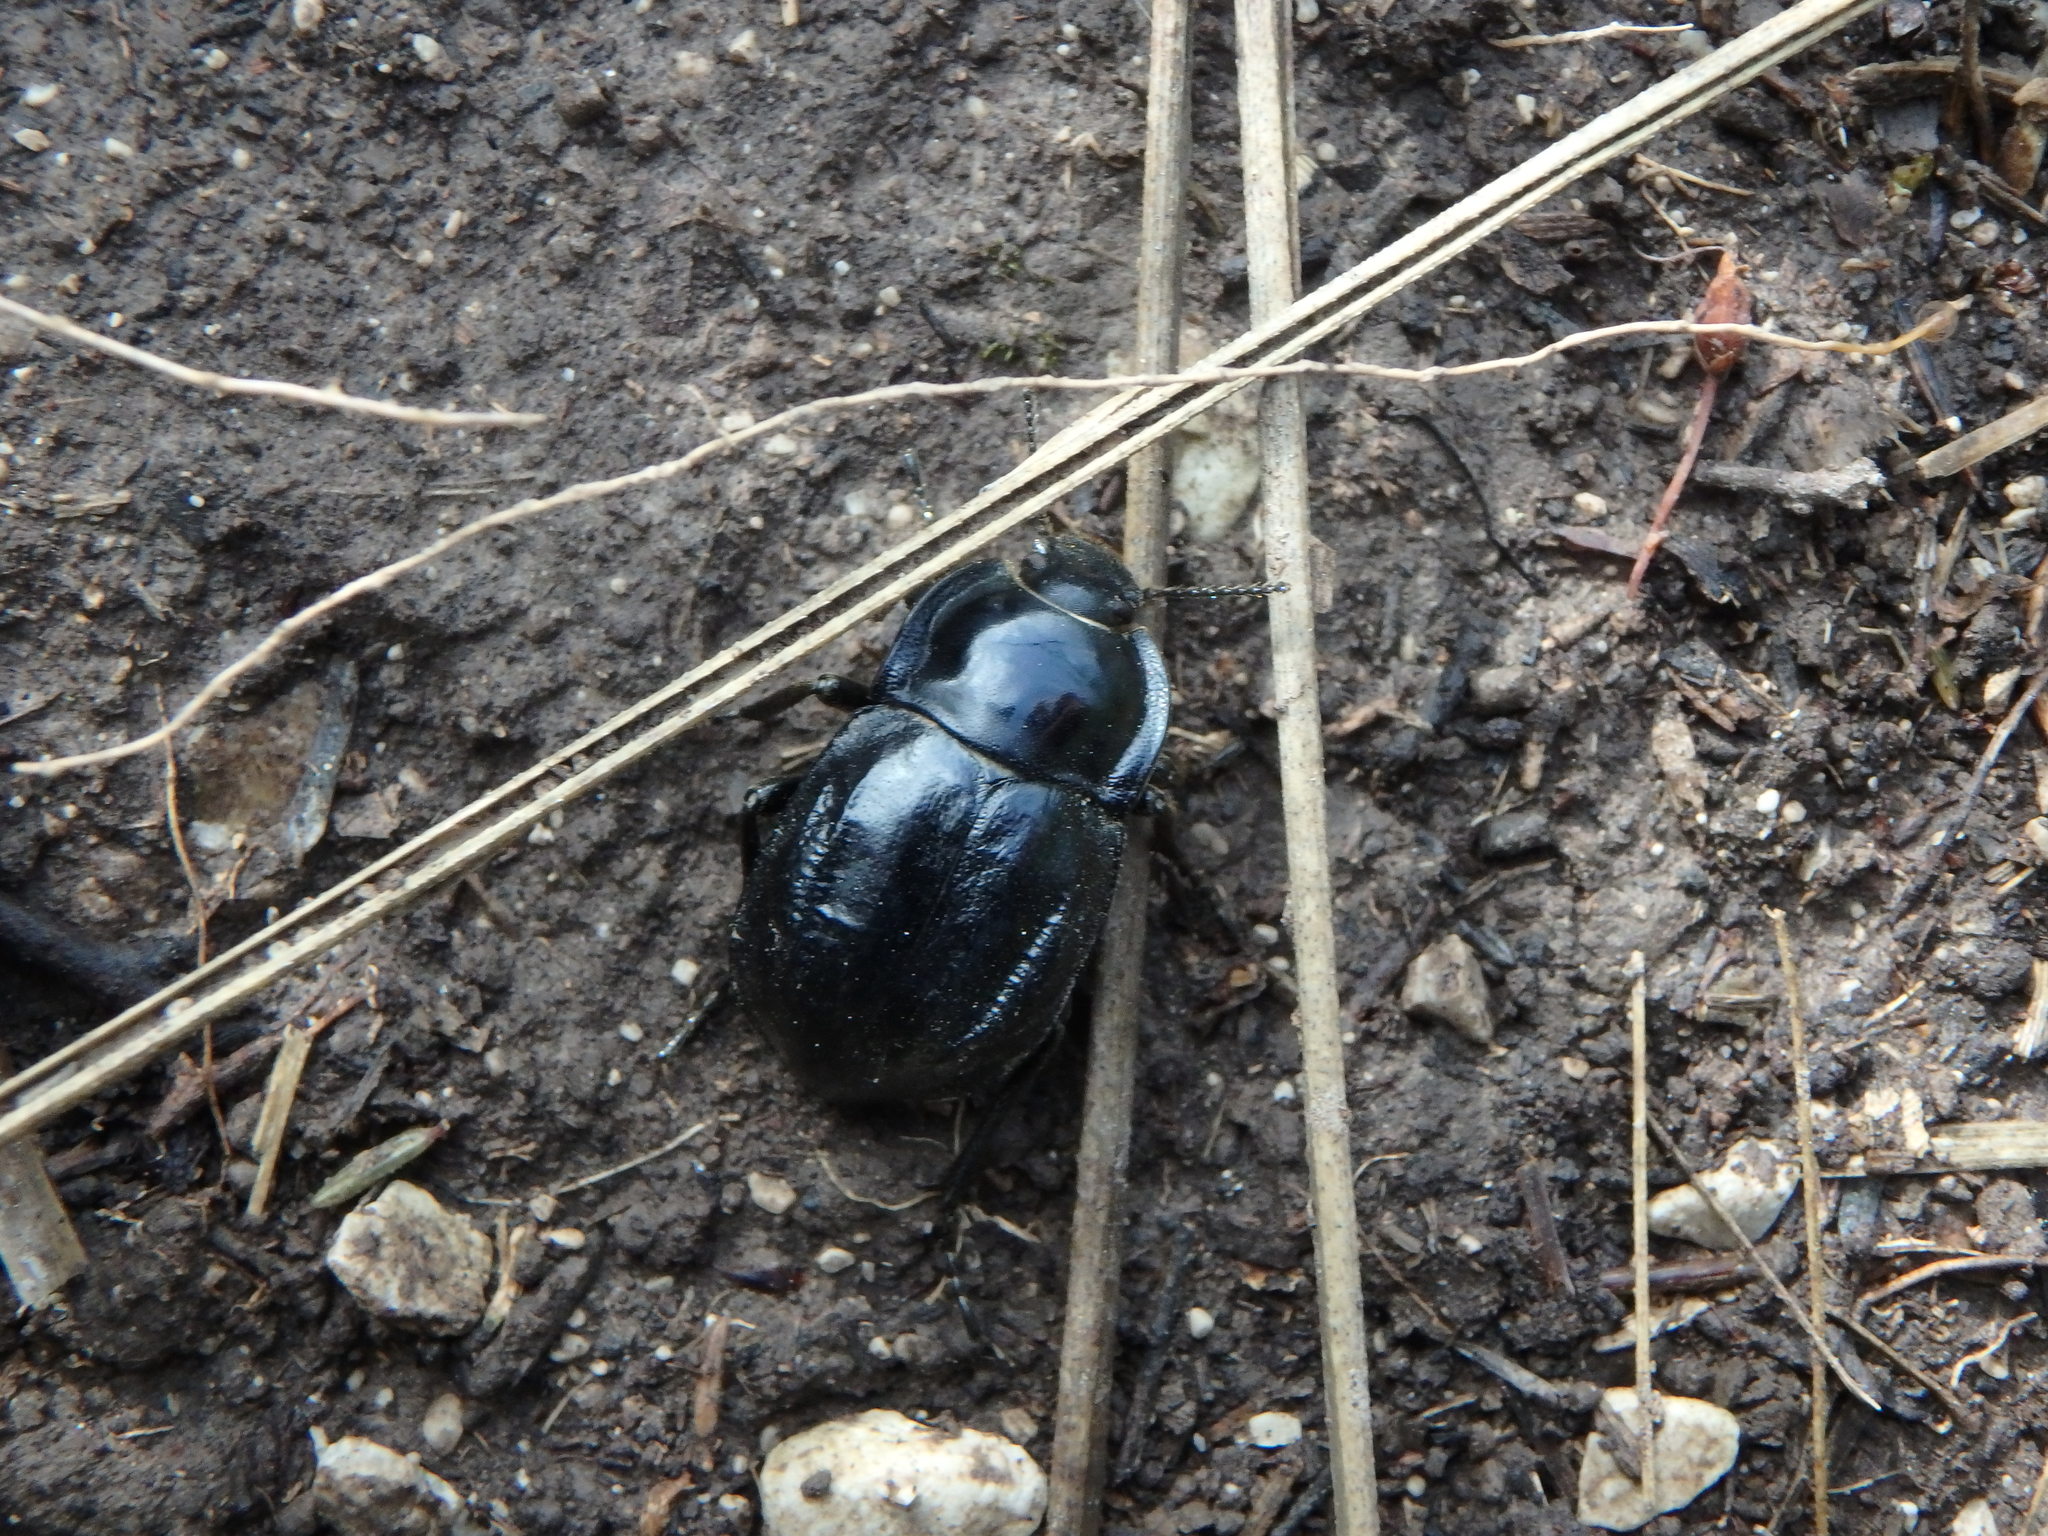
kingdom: Animalia
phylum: Arthropoda
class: Insecta
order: Coleoptera
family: Tenebrionidae
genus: Alphasida
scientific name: Alphasida depressa
